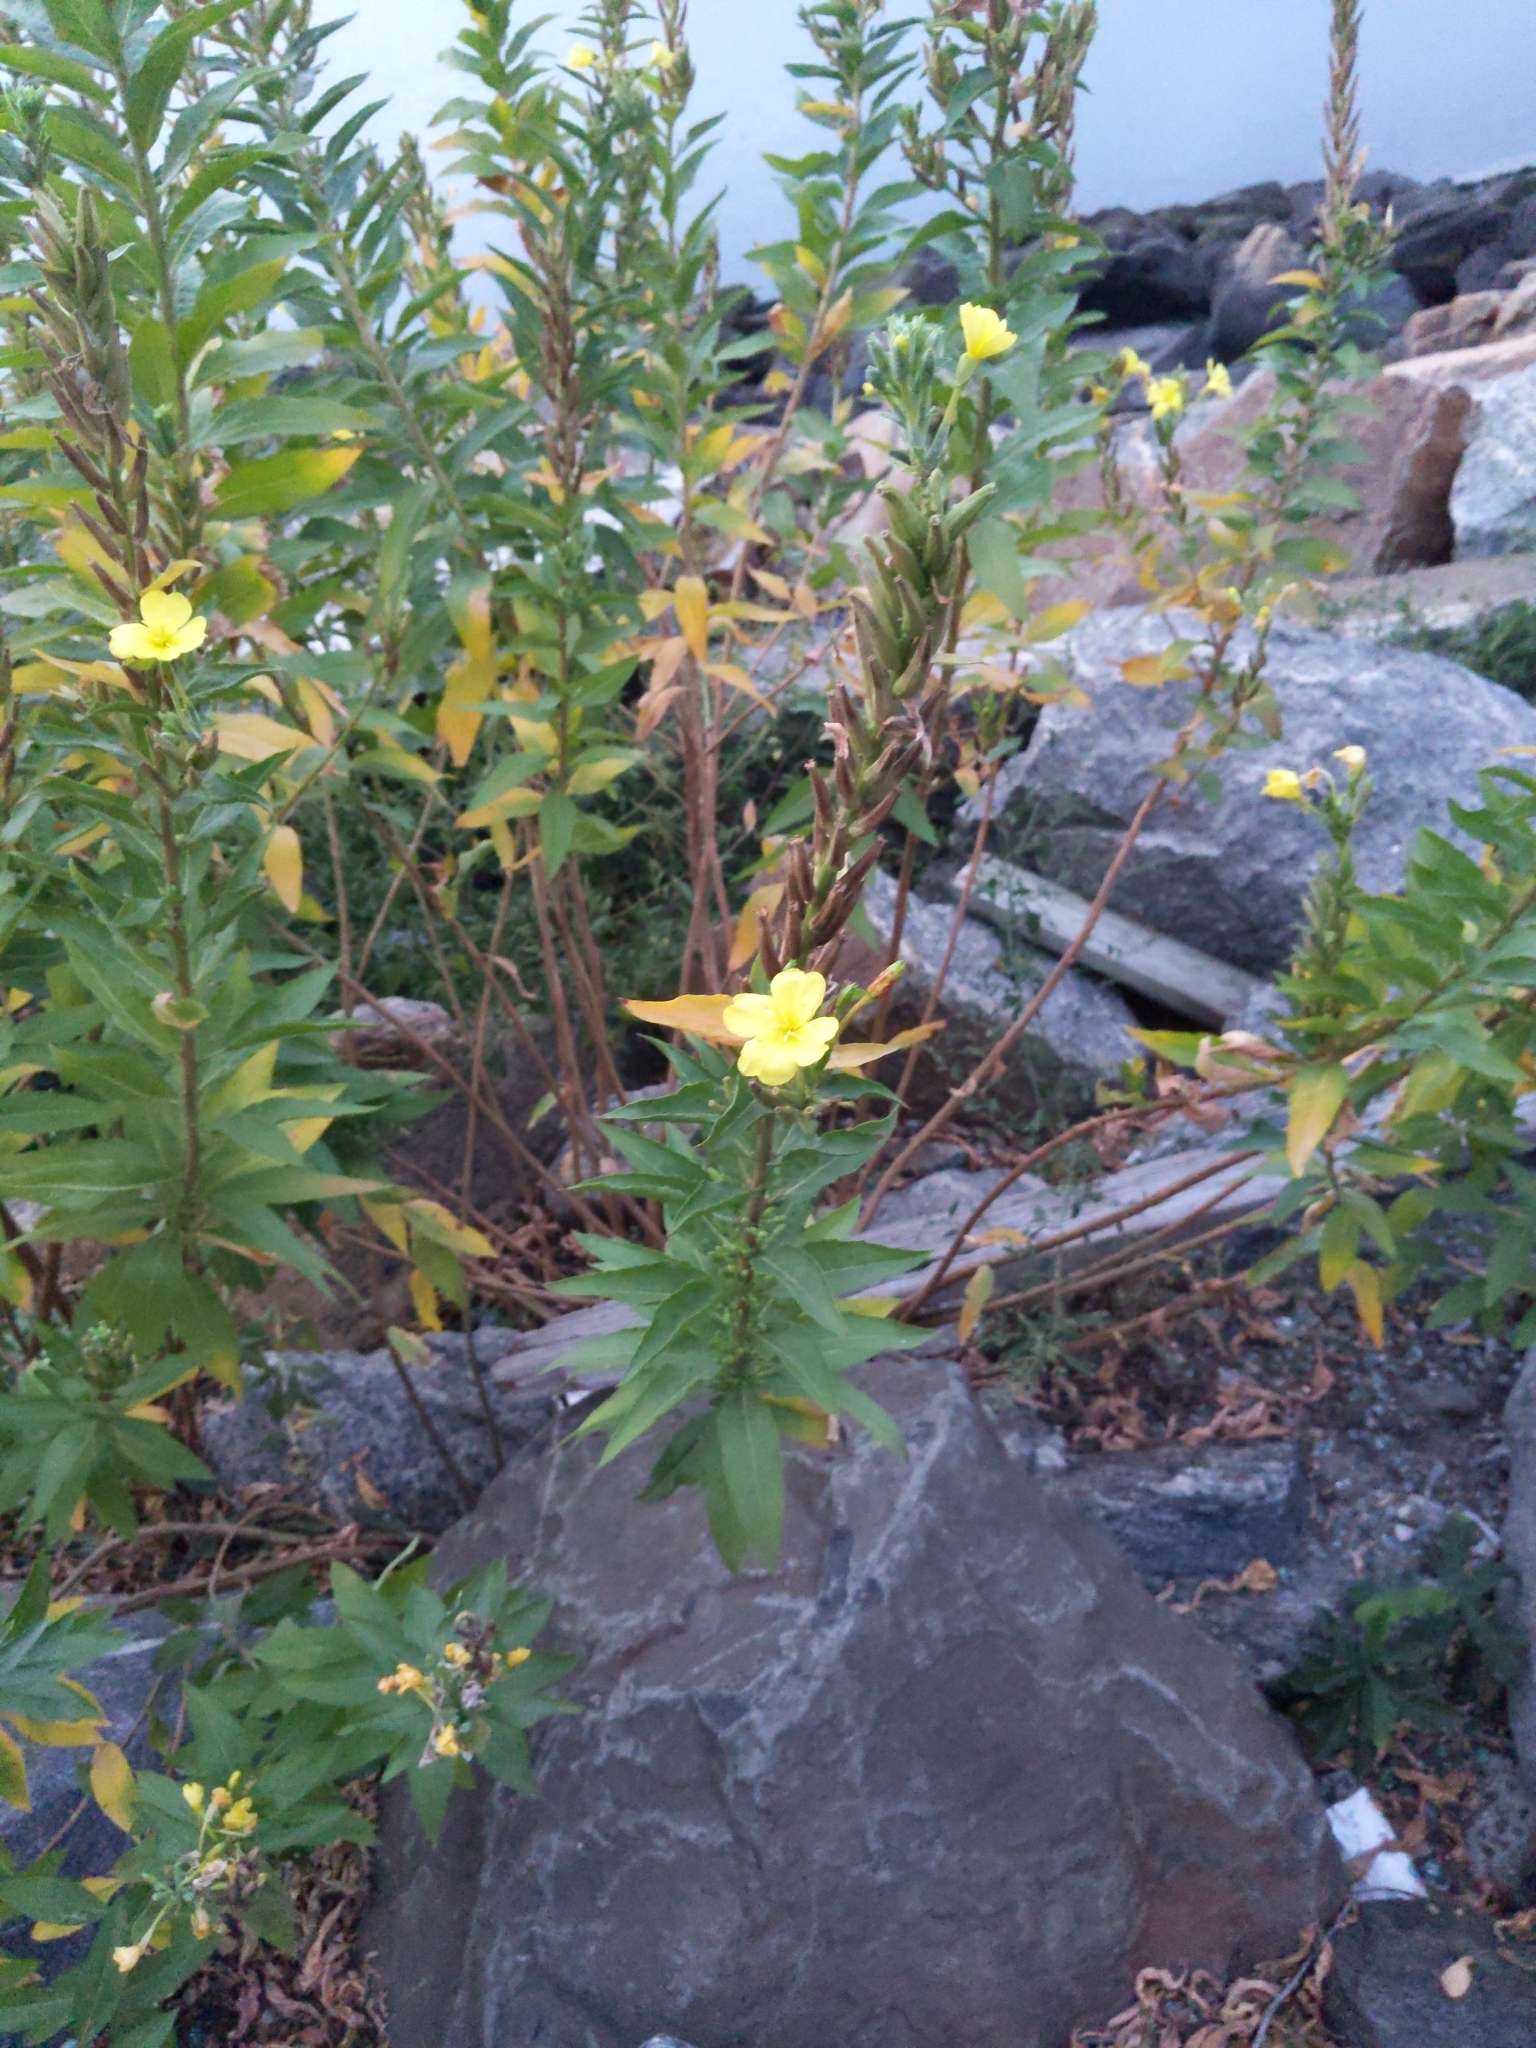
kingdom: Plantae
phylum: Tracheophyta
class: Magnoliopsida
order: Myrtales
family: Onagraceae
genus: Oenothera
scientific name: Oenothera biennis
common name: Common evening-primrose
